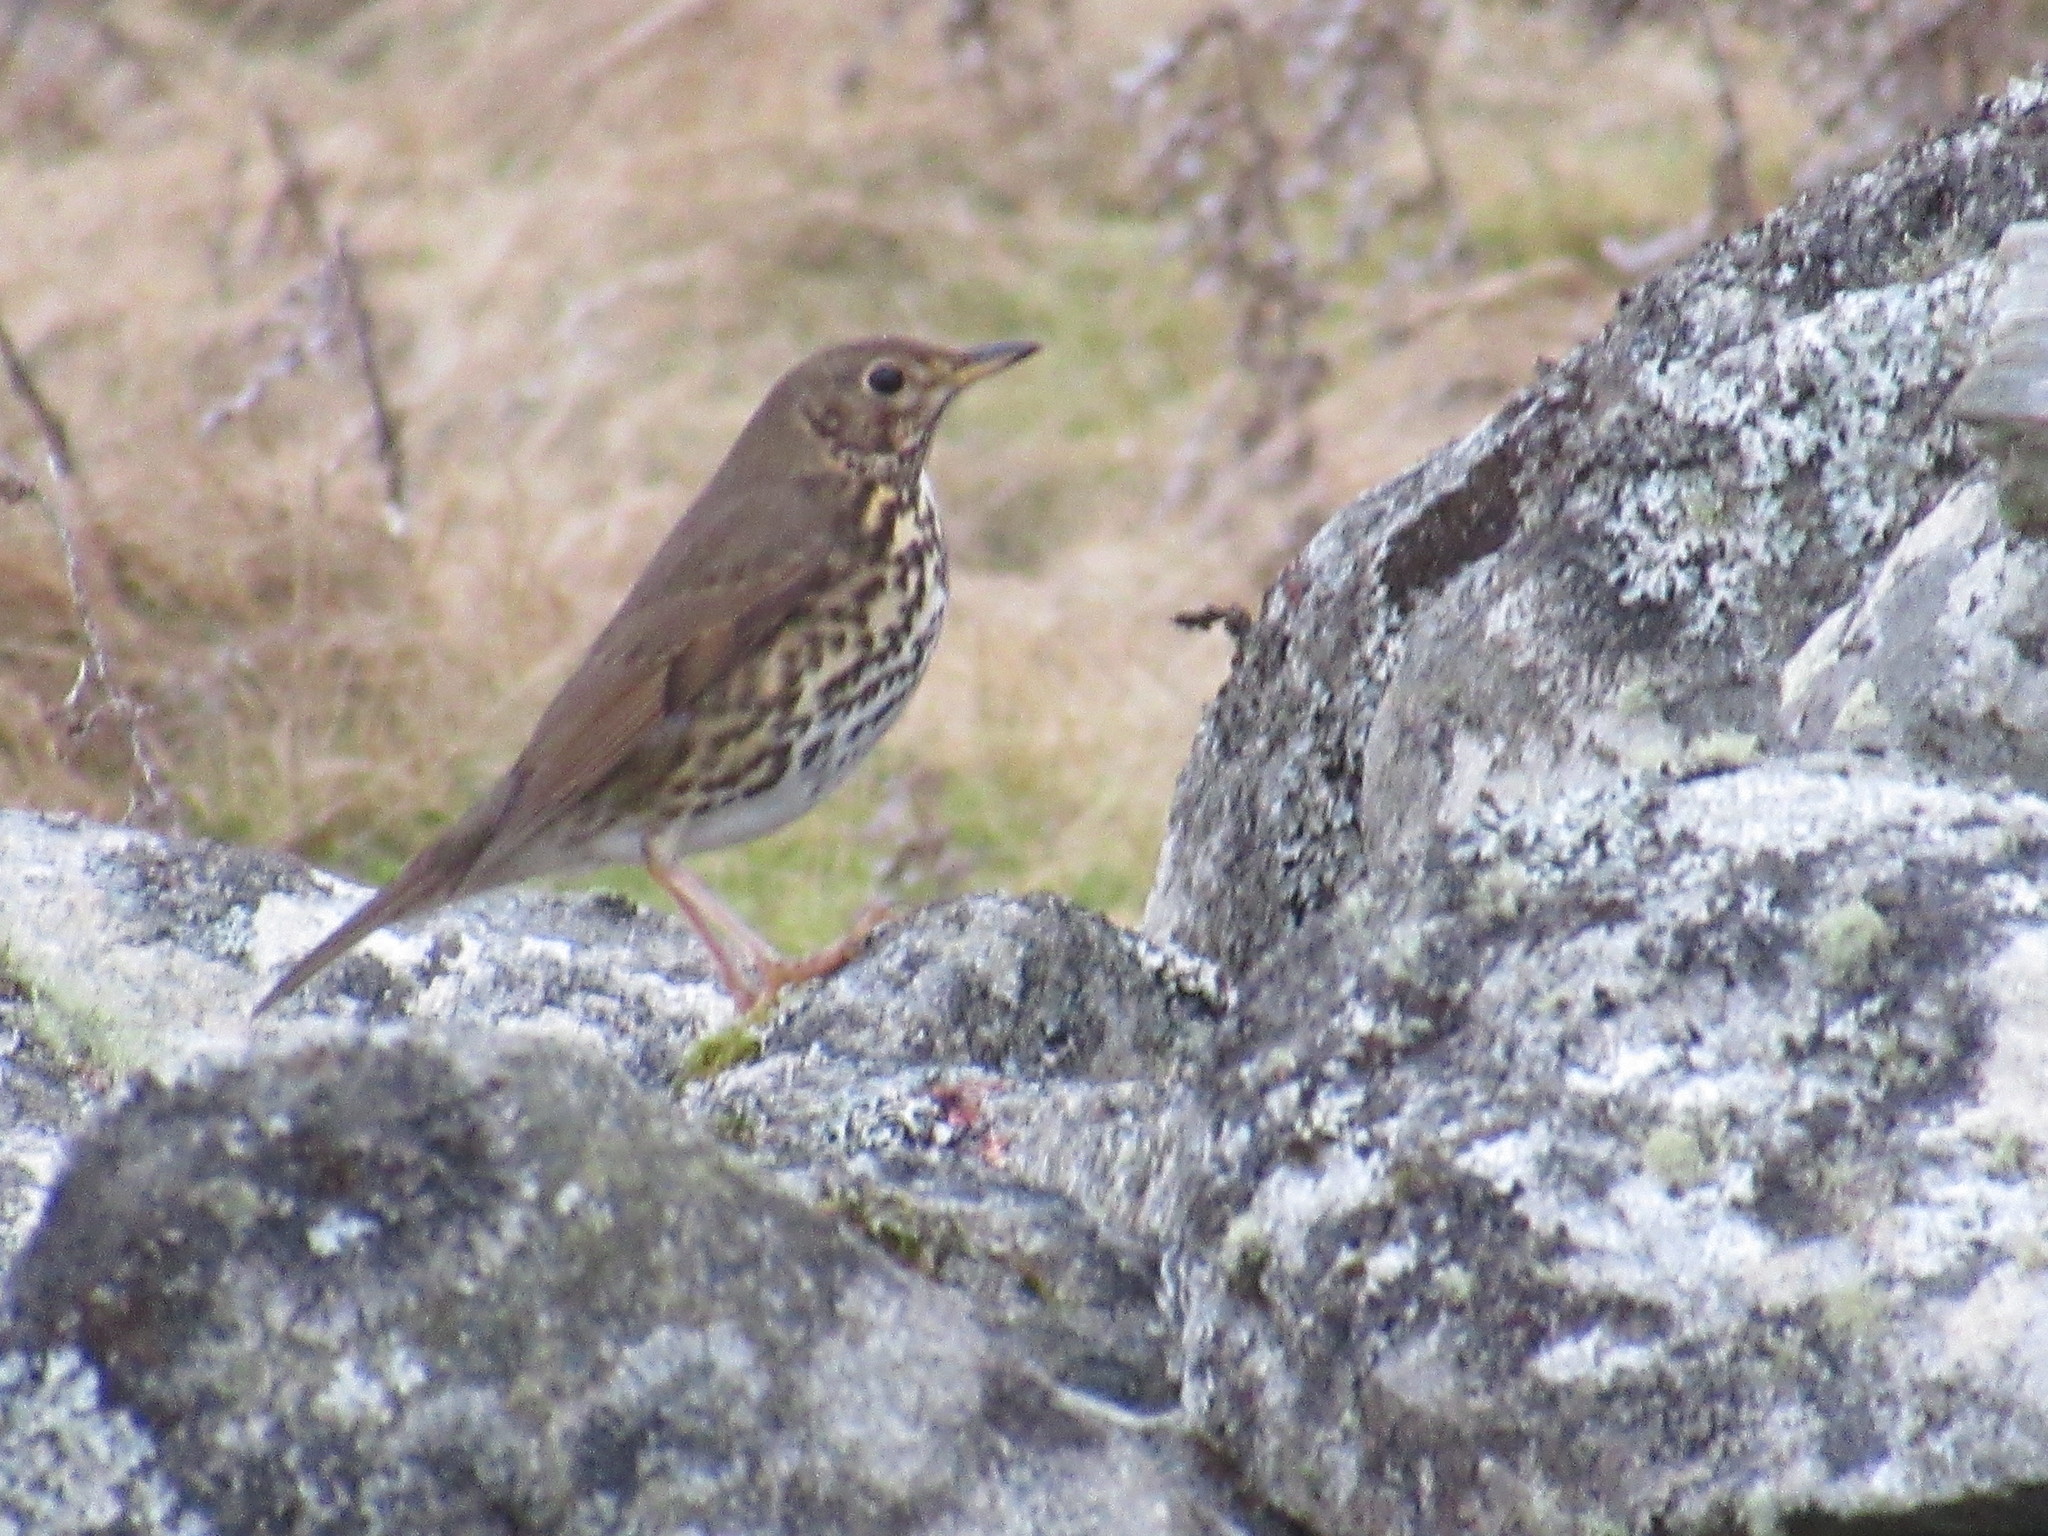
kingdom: Animalia
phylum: Chordata
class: Aves
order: Passeriformes
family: Turdidae
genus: Turdus
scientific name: Turdus philomelos
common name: Song thrush
